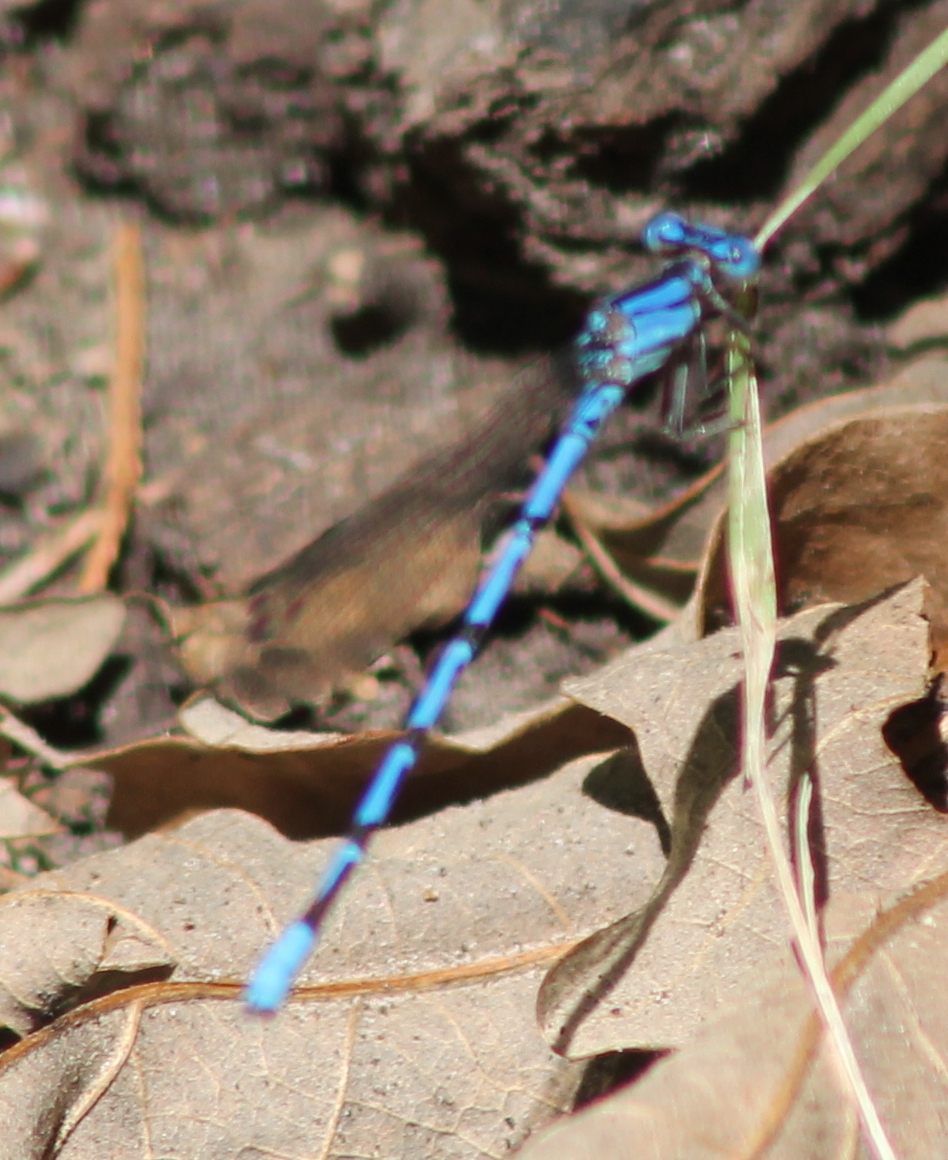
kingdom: Animalia
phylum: Arthropoda
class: Insecta
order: Odonata
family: Coenagrionidae
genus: Argia
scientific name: Argia funebris
